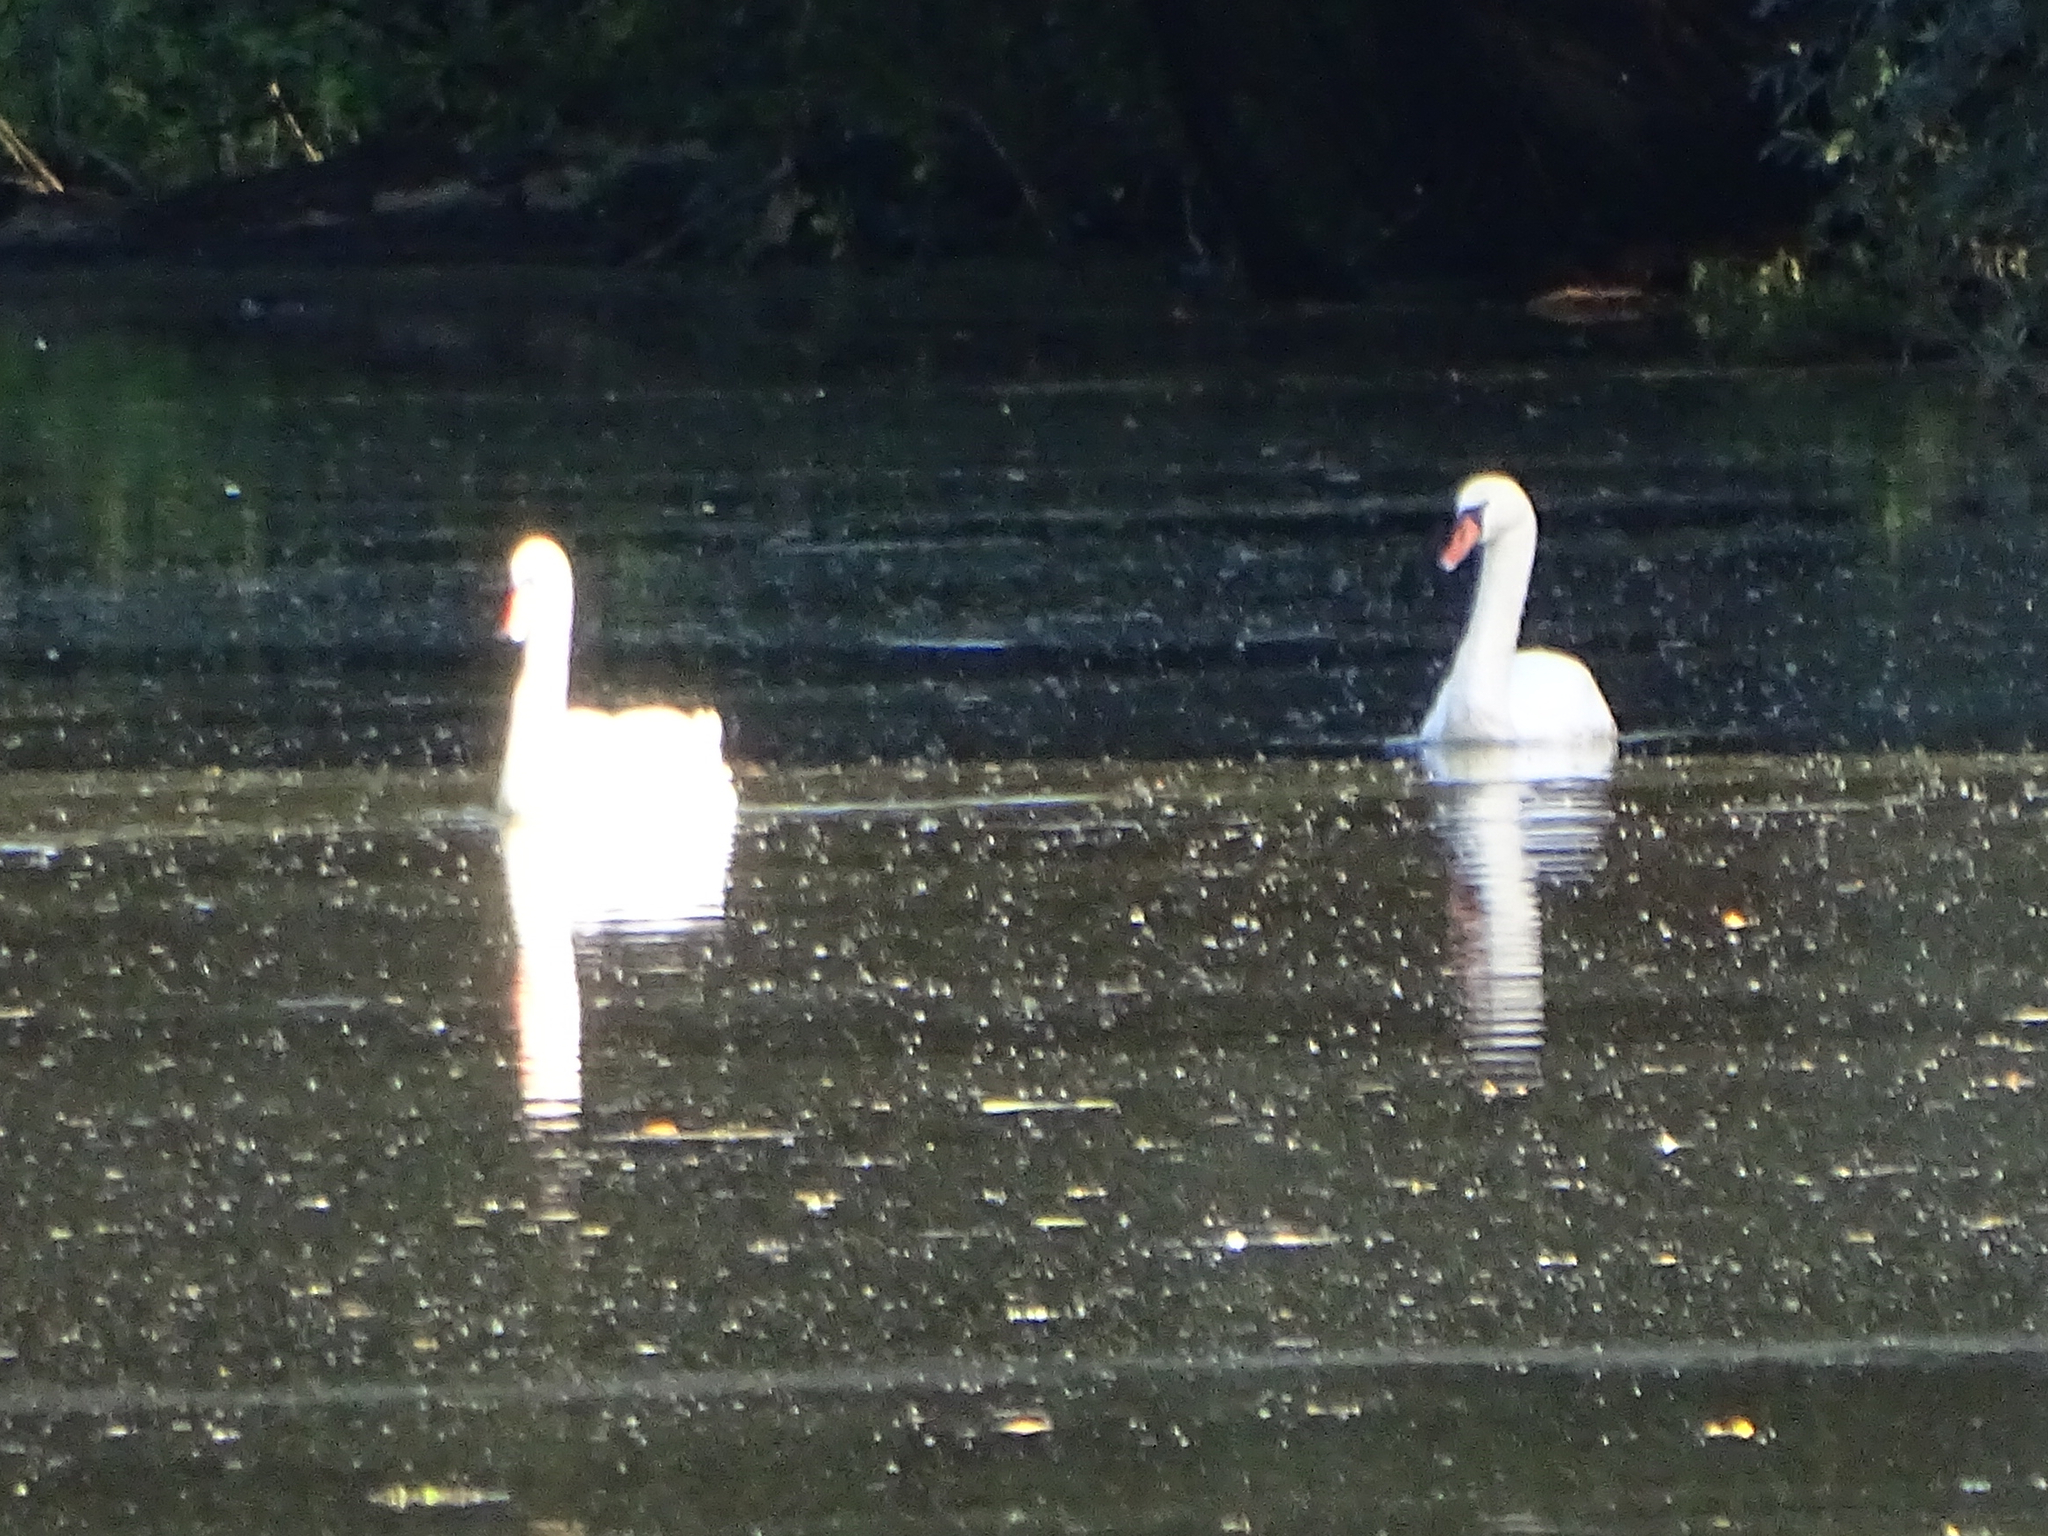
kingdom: Animalia
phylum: Chordata
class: Aves
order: Anseriformes
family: Anatidae
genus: Cygnus
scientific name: Cygnus olor
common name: Mute swan
